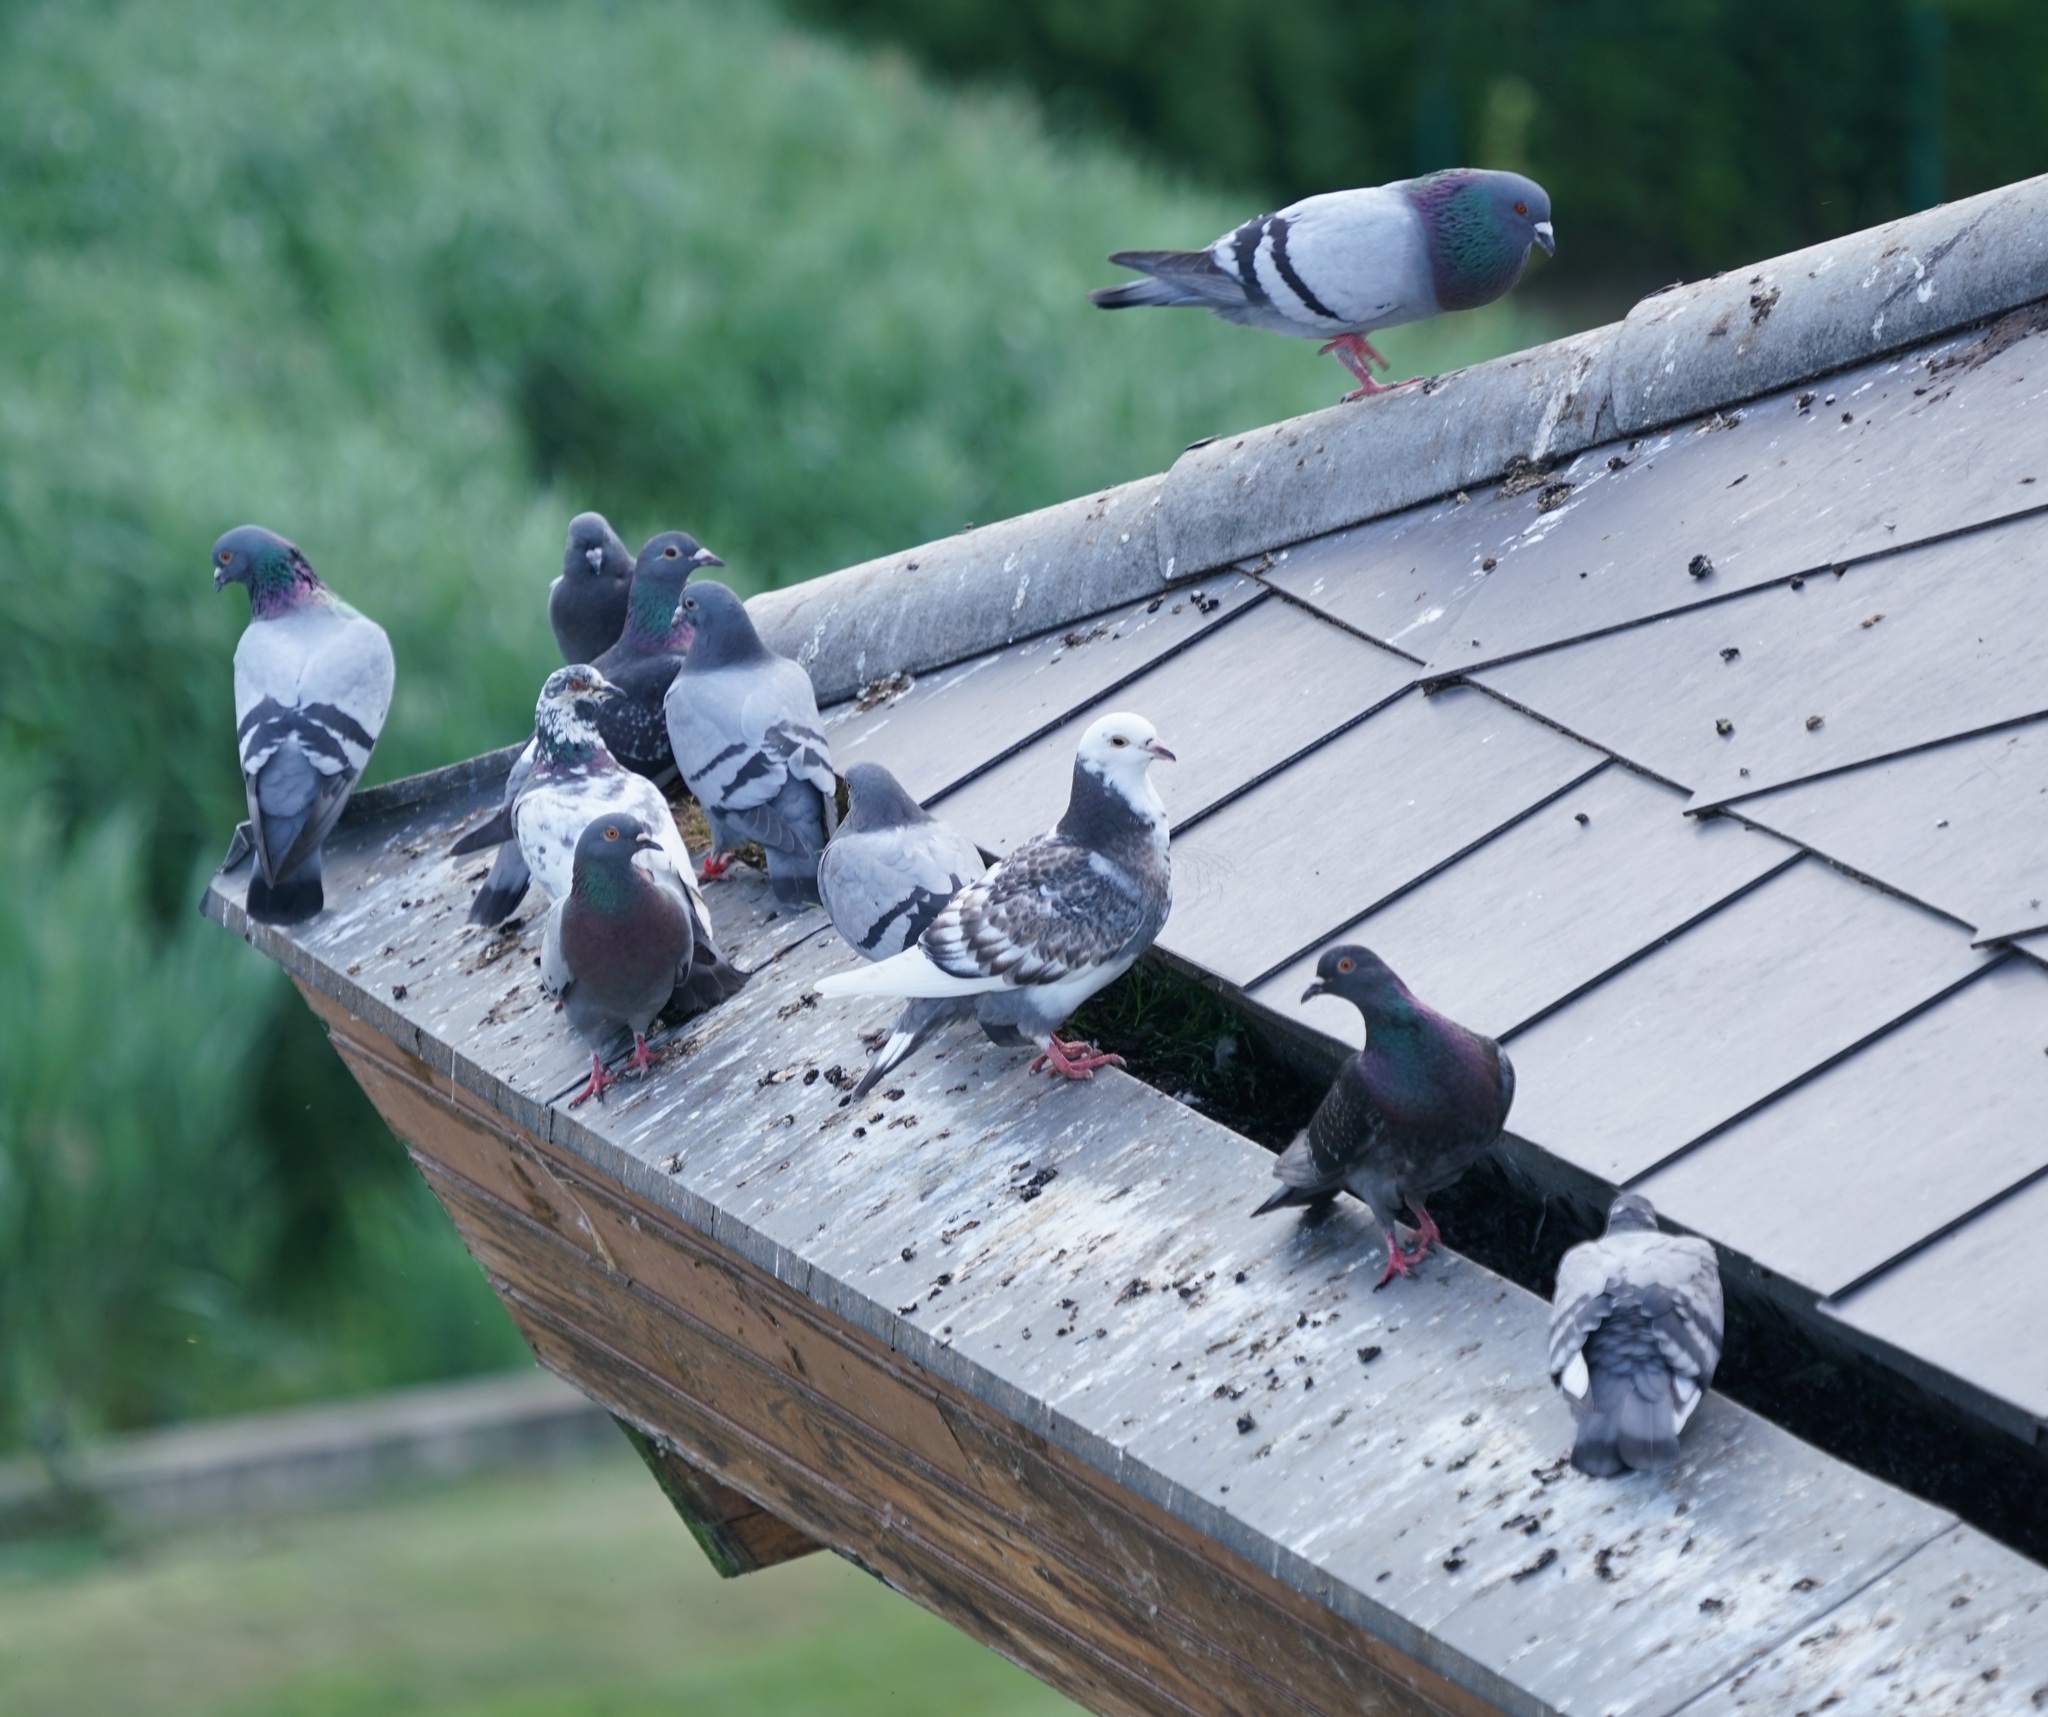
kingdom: Animalia
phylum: Chordata
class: Aves
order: Columbiformes
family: Columbidae
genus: Columba
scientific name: Columba livia
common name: Rock pigeon
